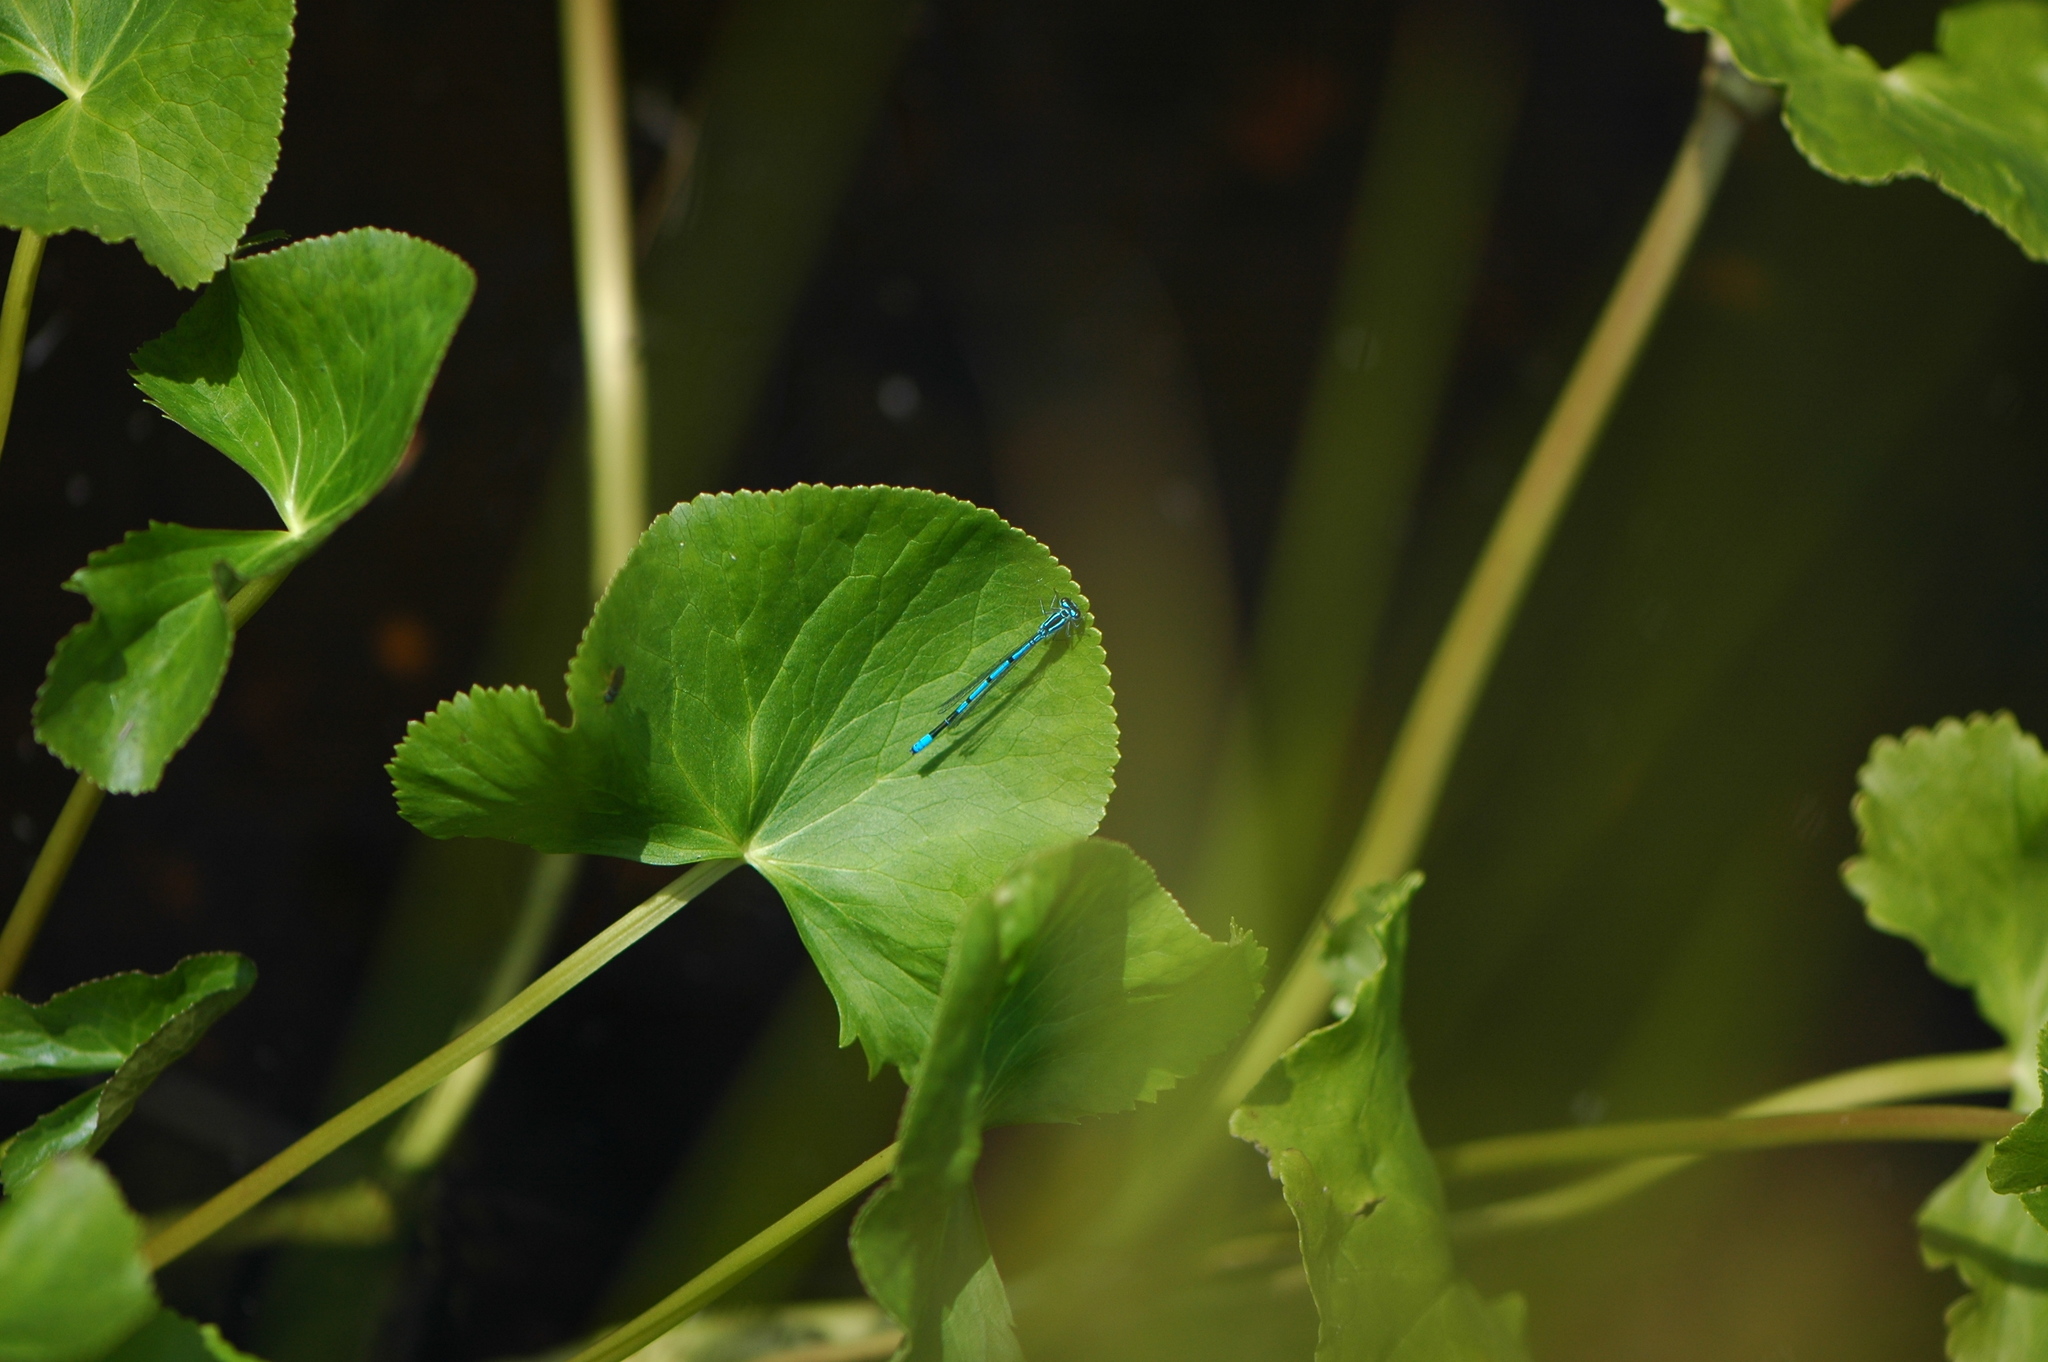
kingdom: Animalia
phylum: Arthropoda
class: Insecta
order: Odonata
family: Coenagrionidae
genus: Coenagrion
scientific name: Coenagrion puella
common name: Azure damselfly
